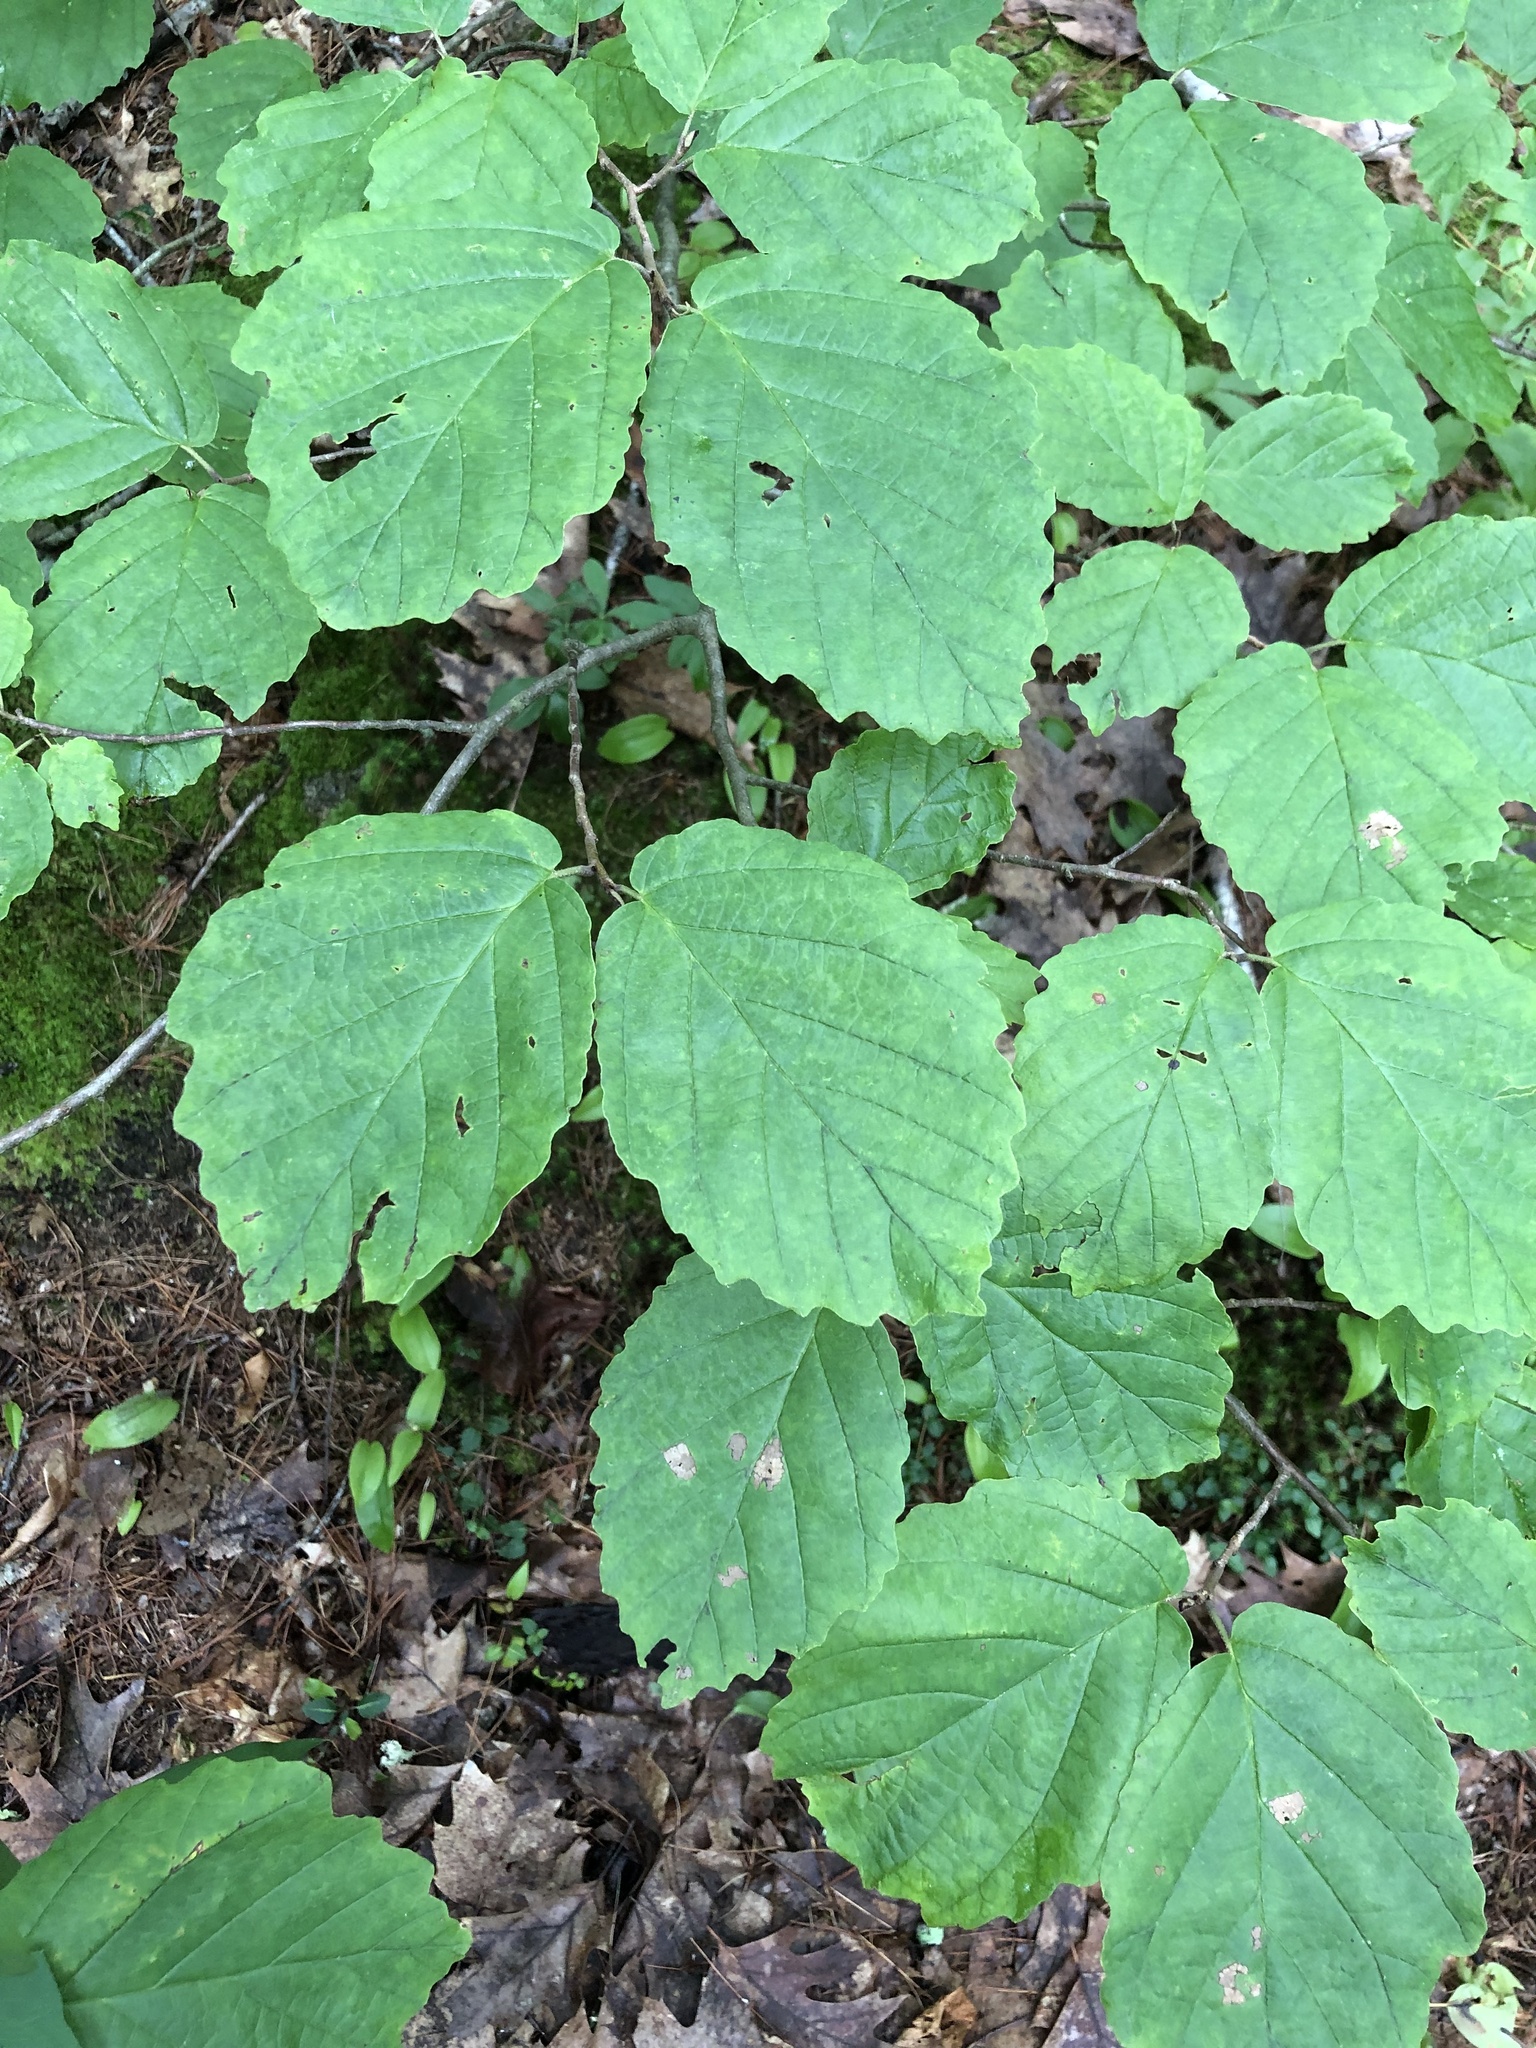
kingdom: Plantae
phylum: Tracheophyta
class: Magnoliopsida
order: Saxifragales
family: Hamamelidaceae
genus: Hamamelis
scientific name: Hamamelis virginiana
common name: Witch-hazel
